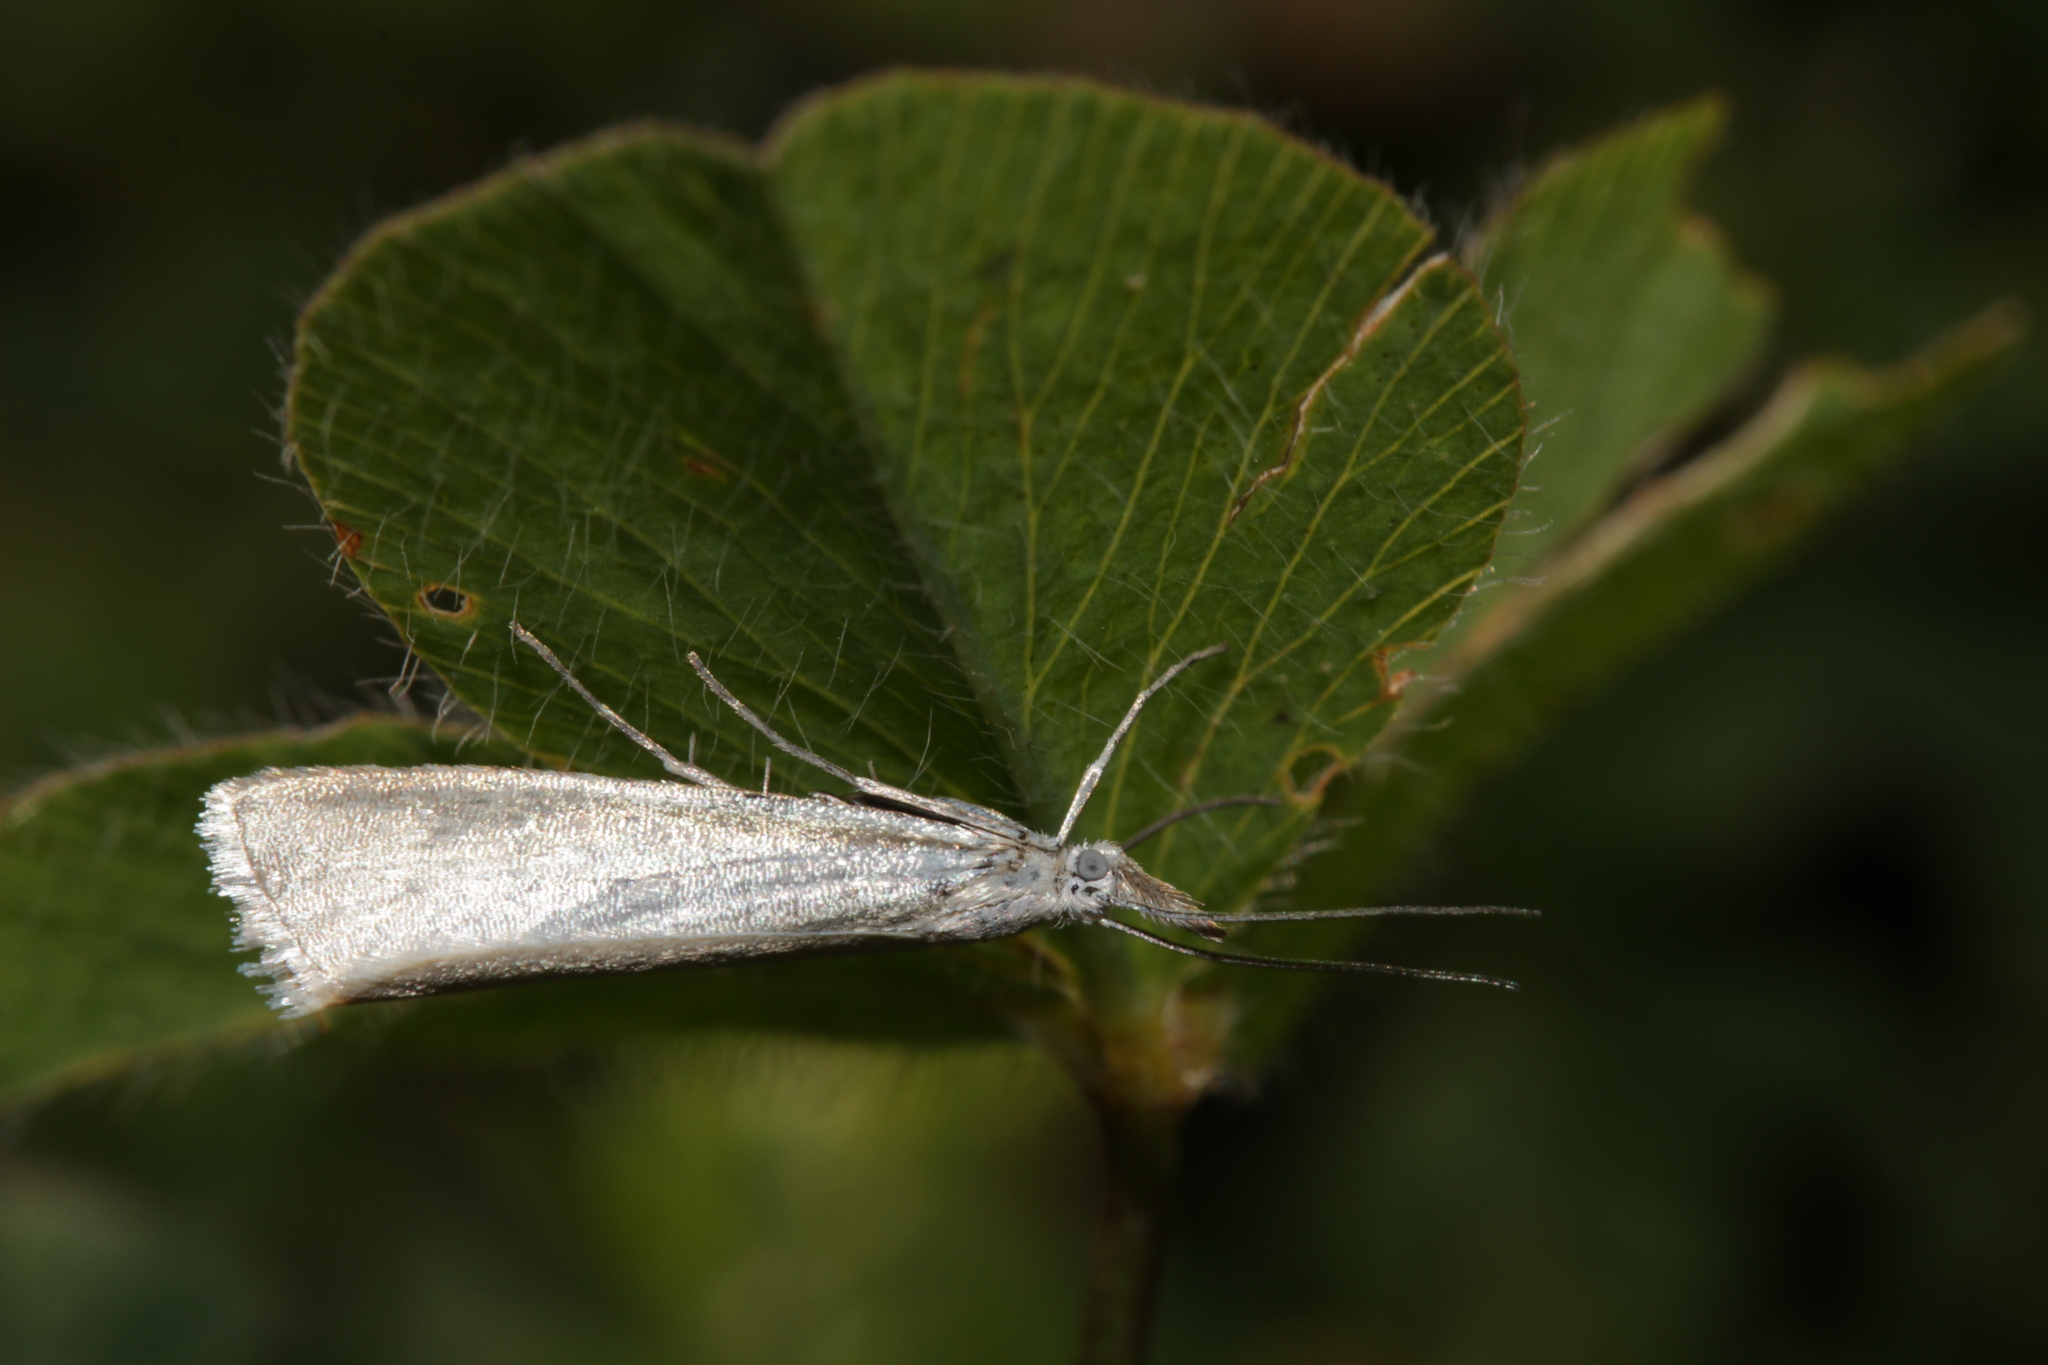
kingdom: Animalia
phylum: Arthropoda
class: Insecta
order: Lepidoptera
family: Crambidae
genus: Crambus
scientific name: Crambus perlellus
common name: Yellow satin veneer
